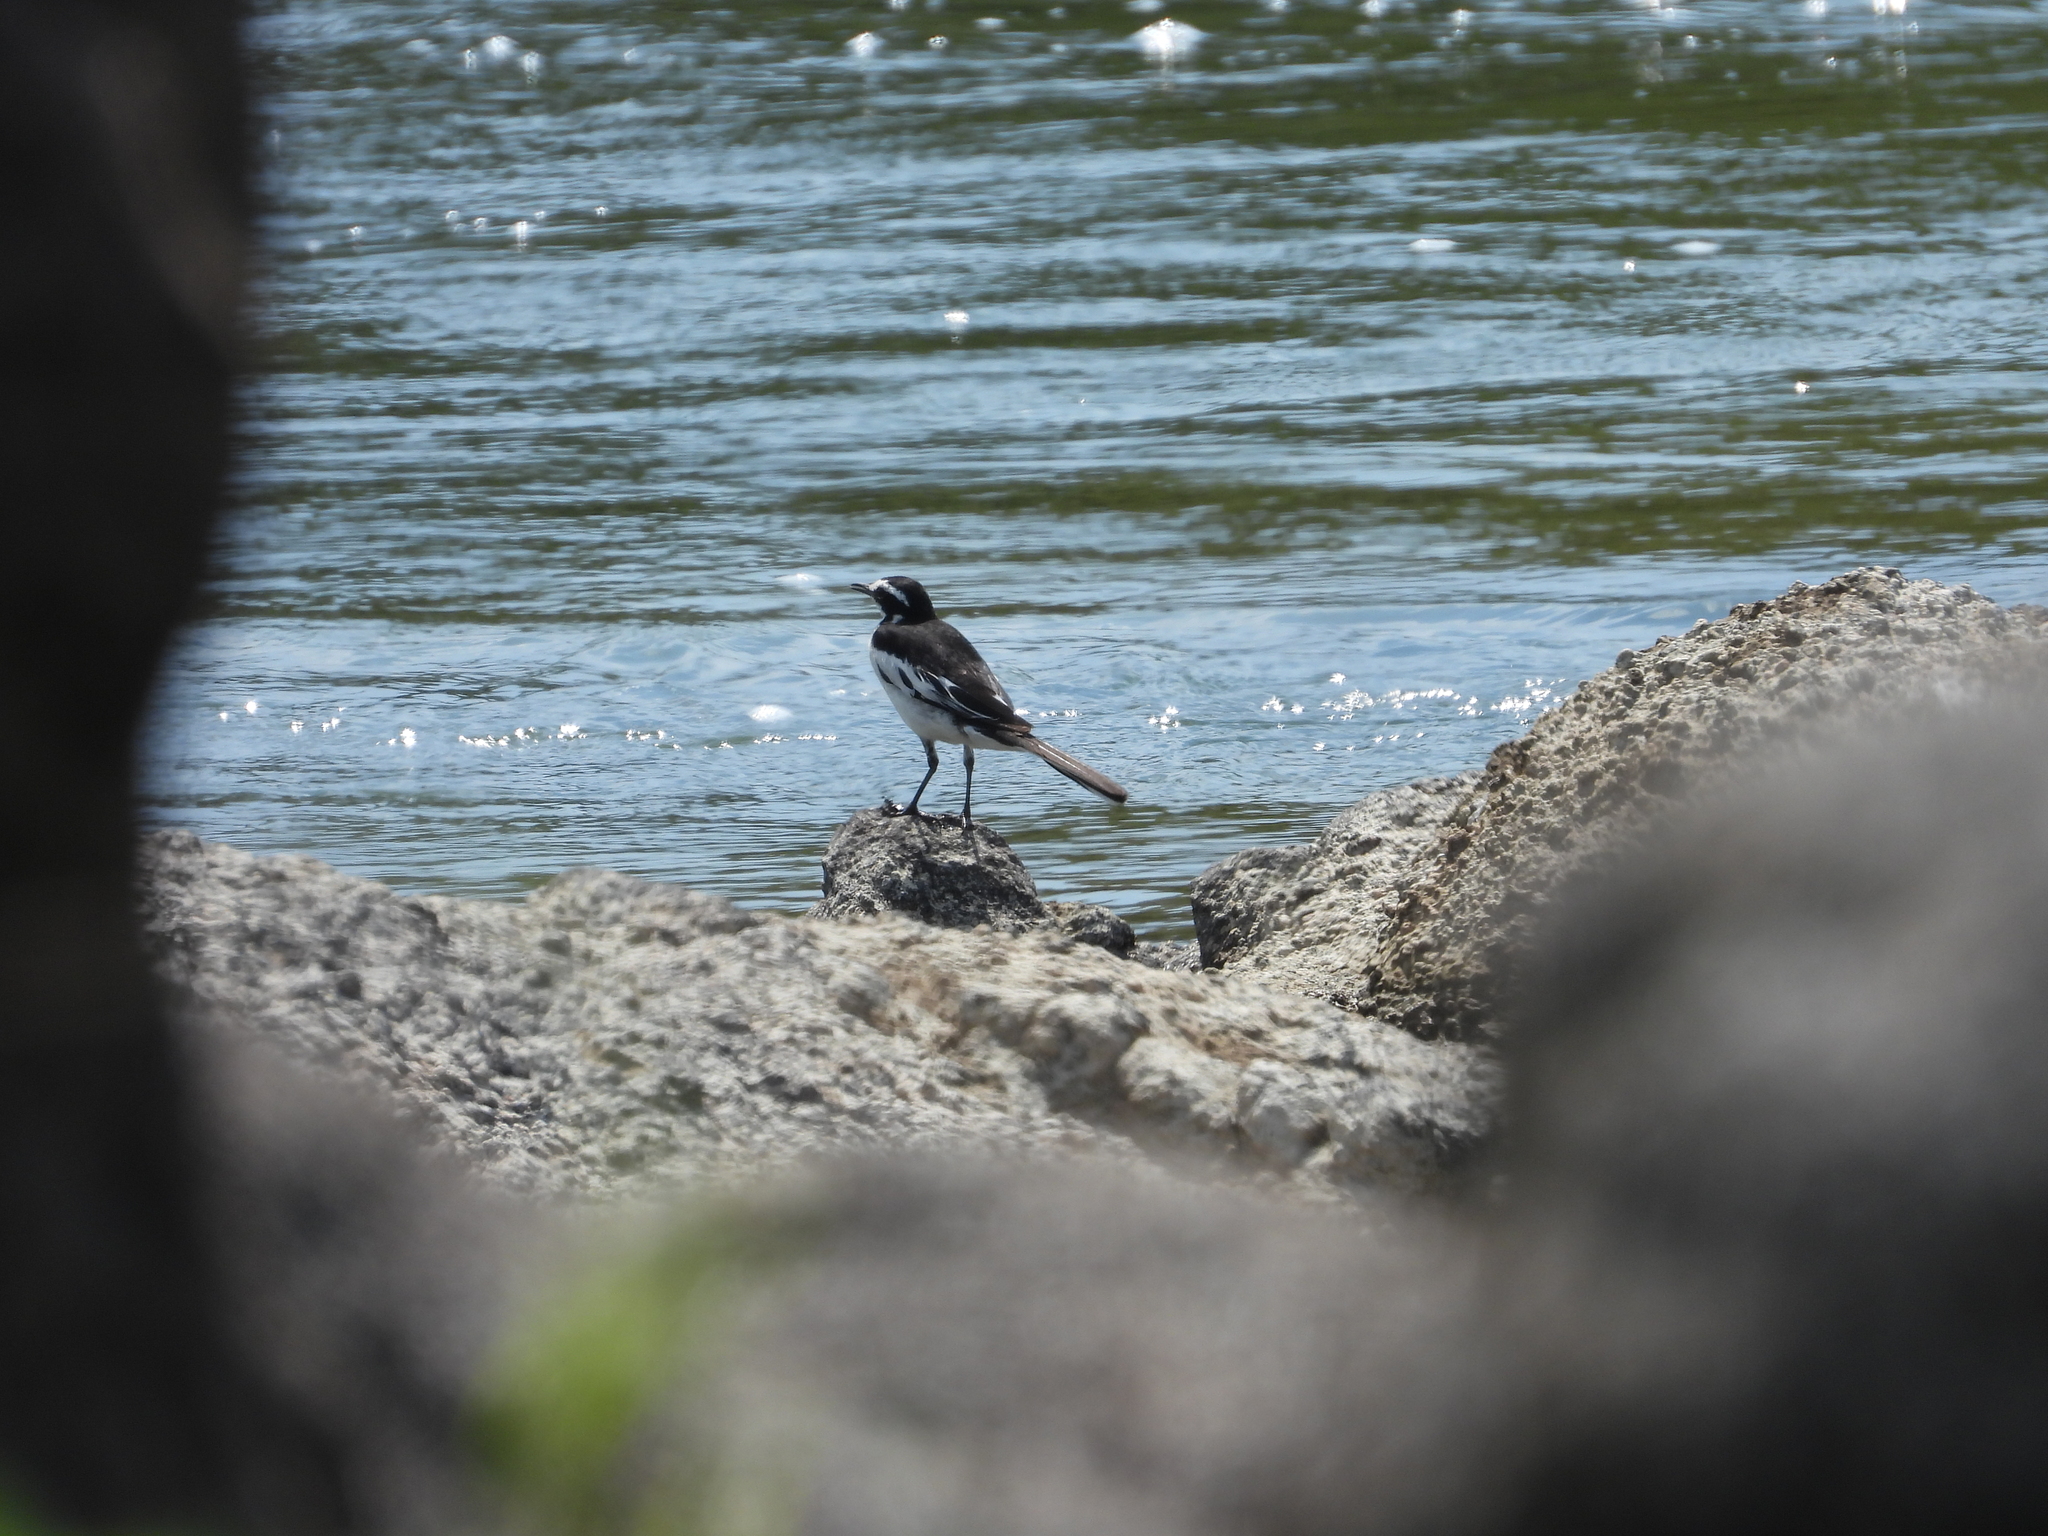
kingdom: Animalia
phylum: Chordata
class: Aves
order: Passeriformes
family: Motacillidae
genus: Motacilla
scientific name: Motacilla aguimp
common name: African pied wagtail
